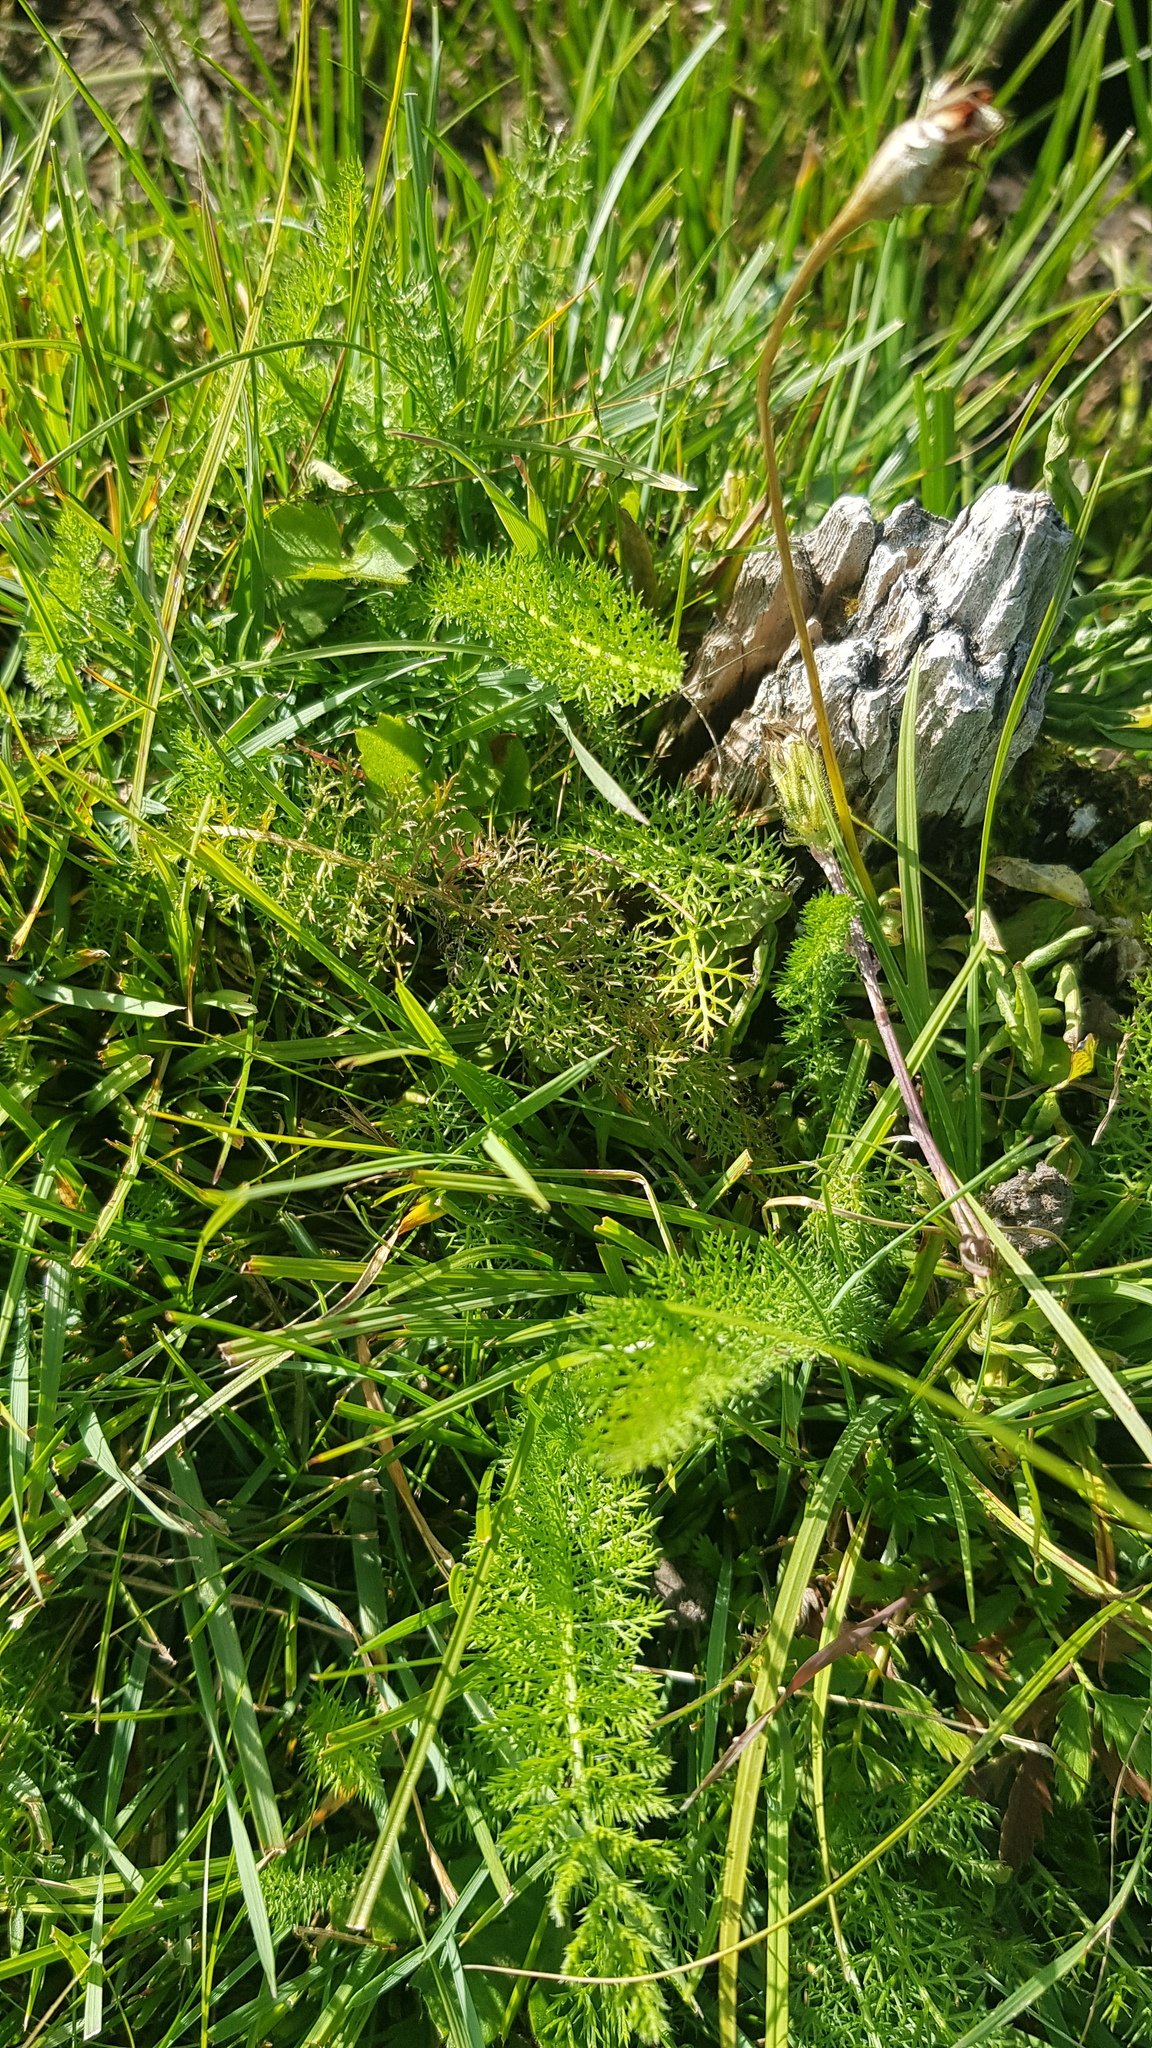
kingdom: Plantae
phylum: Tracheophyta
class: Magnoliopsida
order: Asterales
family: Asteraceae
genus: Achillea
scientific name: Achillea asiatica
